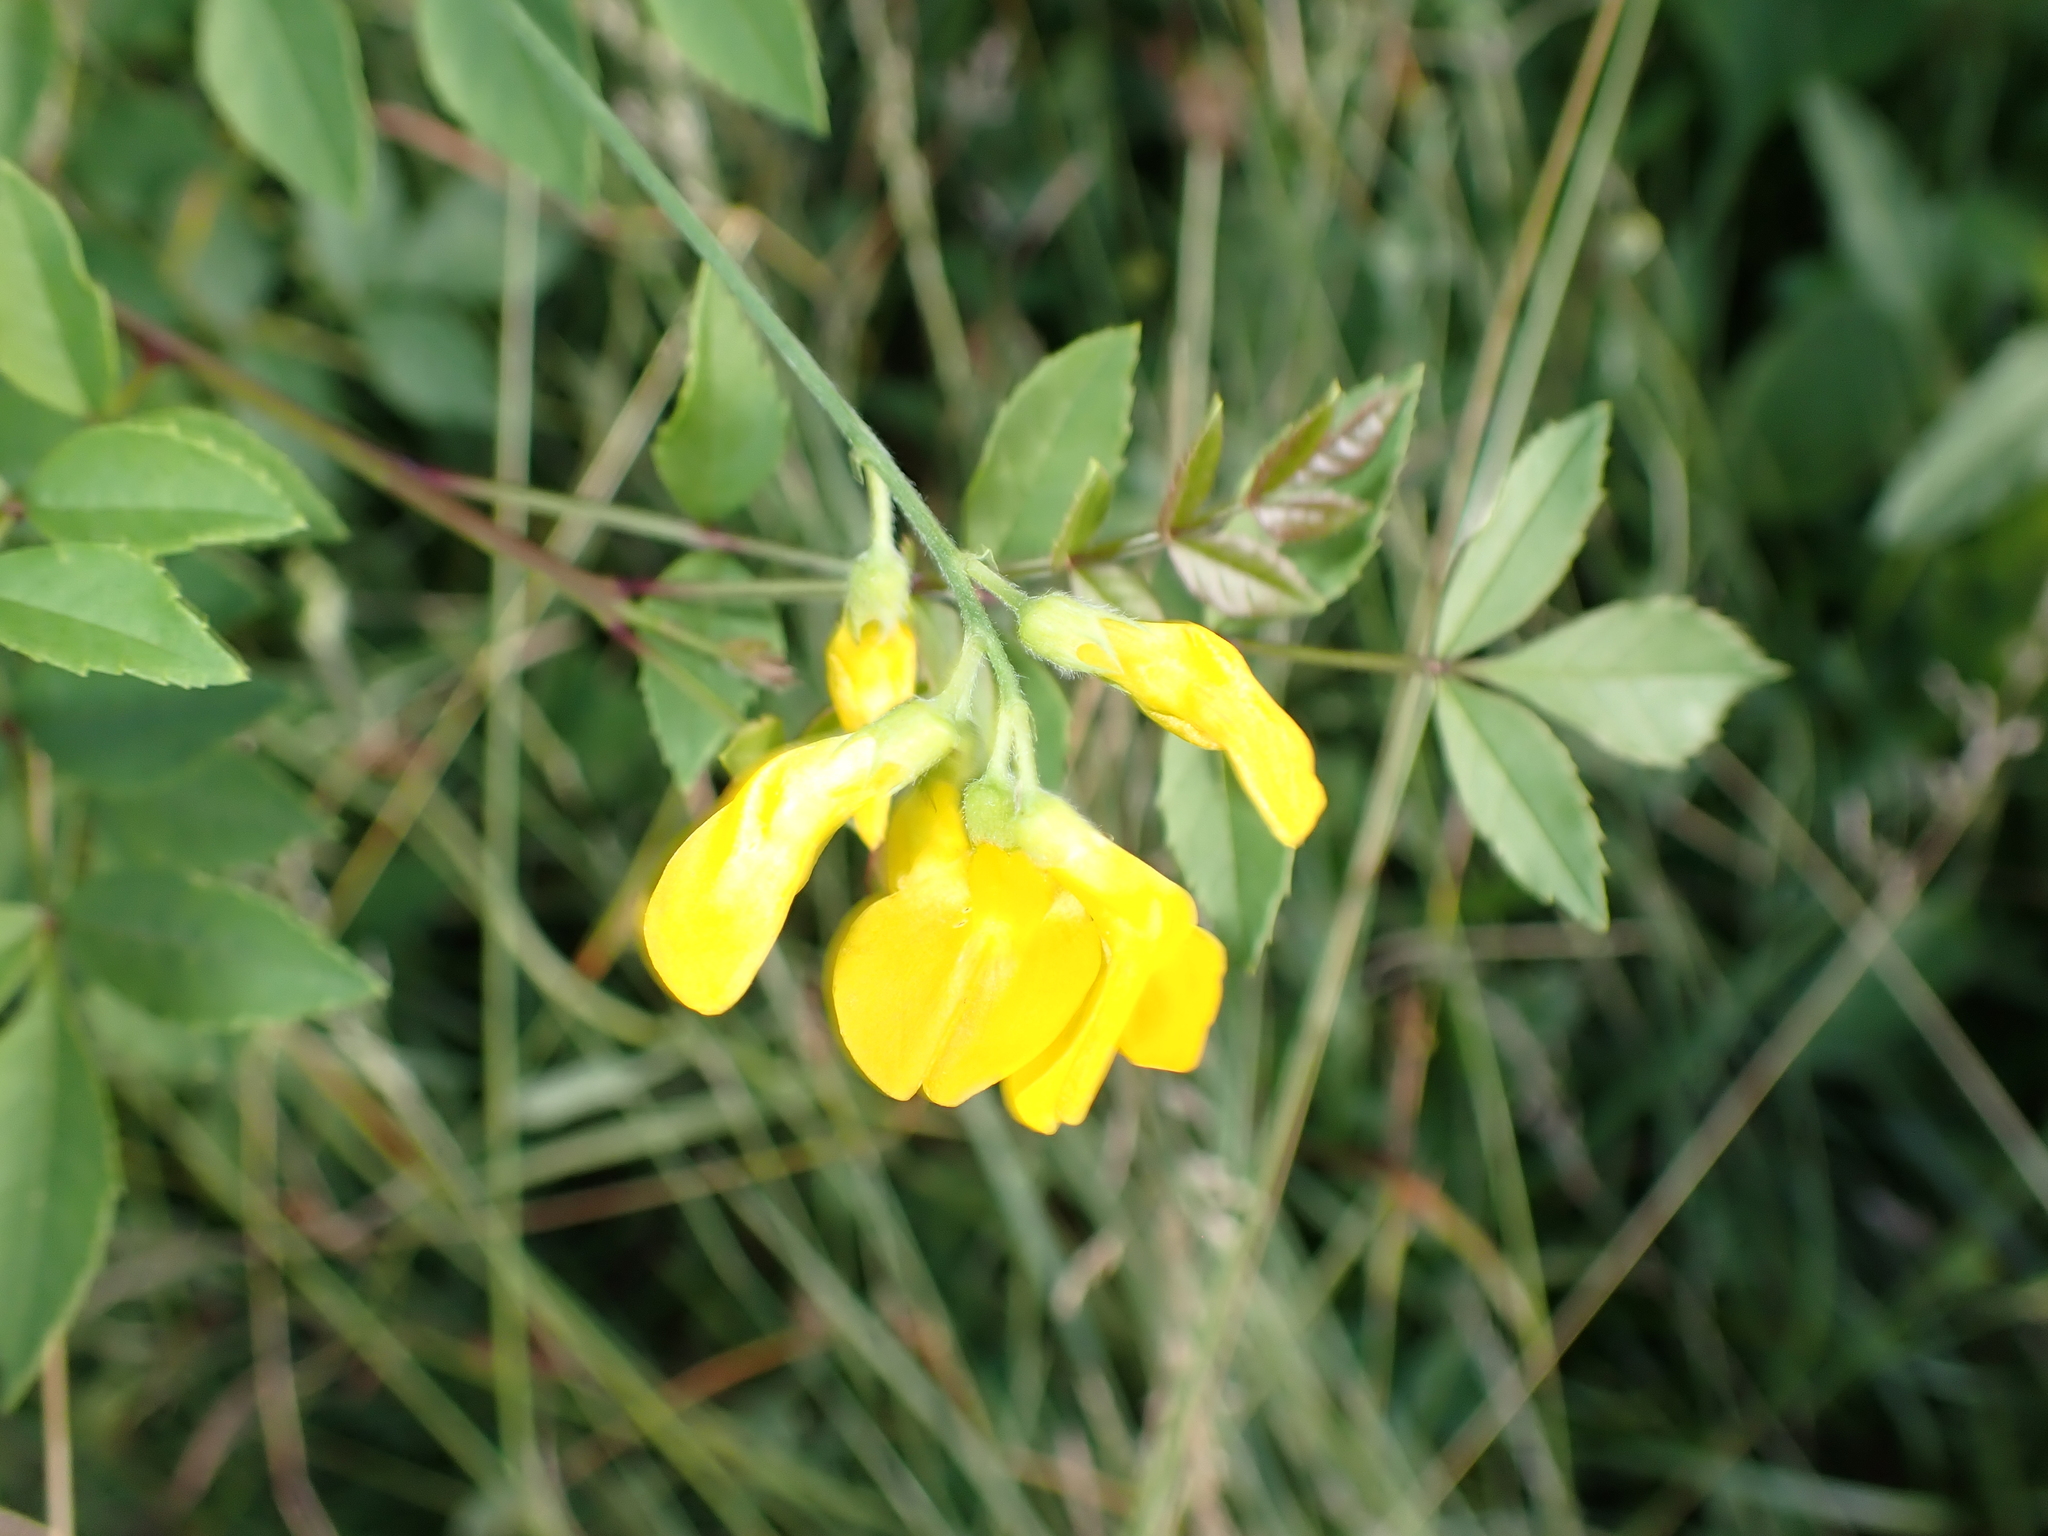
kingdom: Plantae
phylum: Tracheophyta
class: Magnoliopsida
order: Fabales
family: Fabaceae
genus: Lathyrus
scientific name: Lathyrus pratensis
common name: Meadow vetchling
